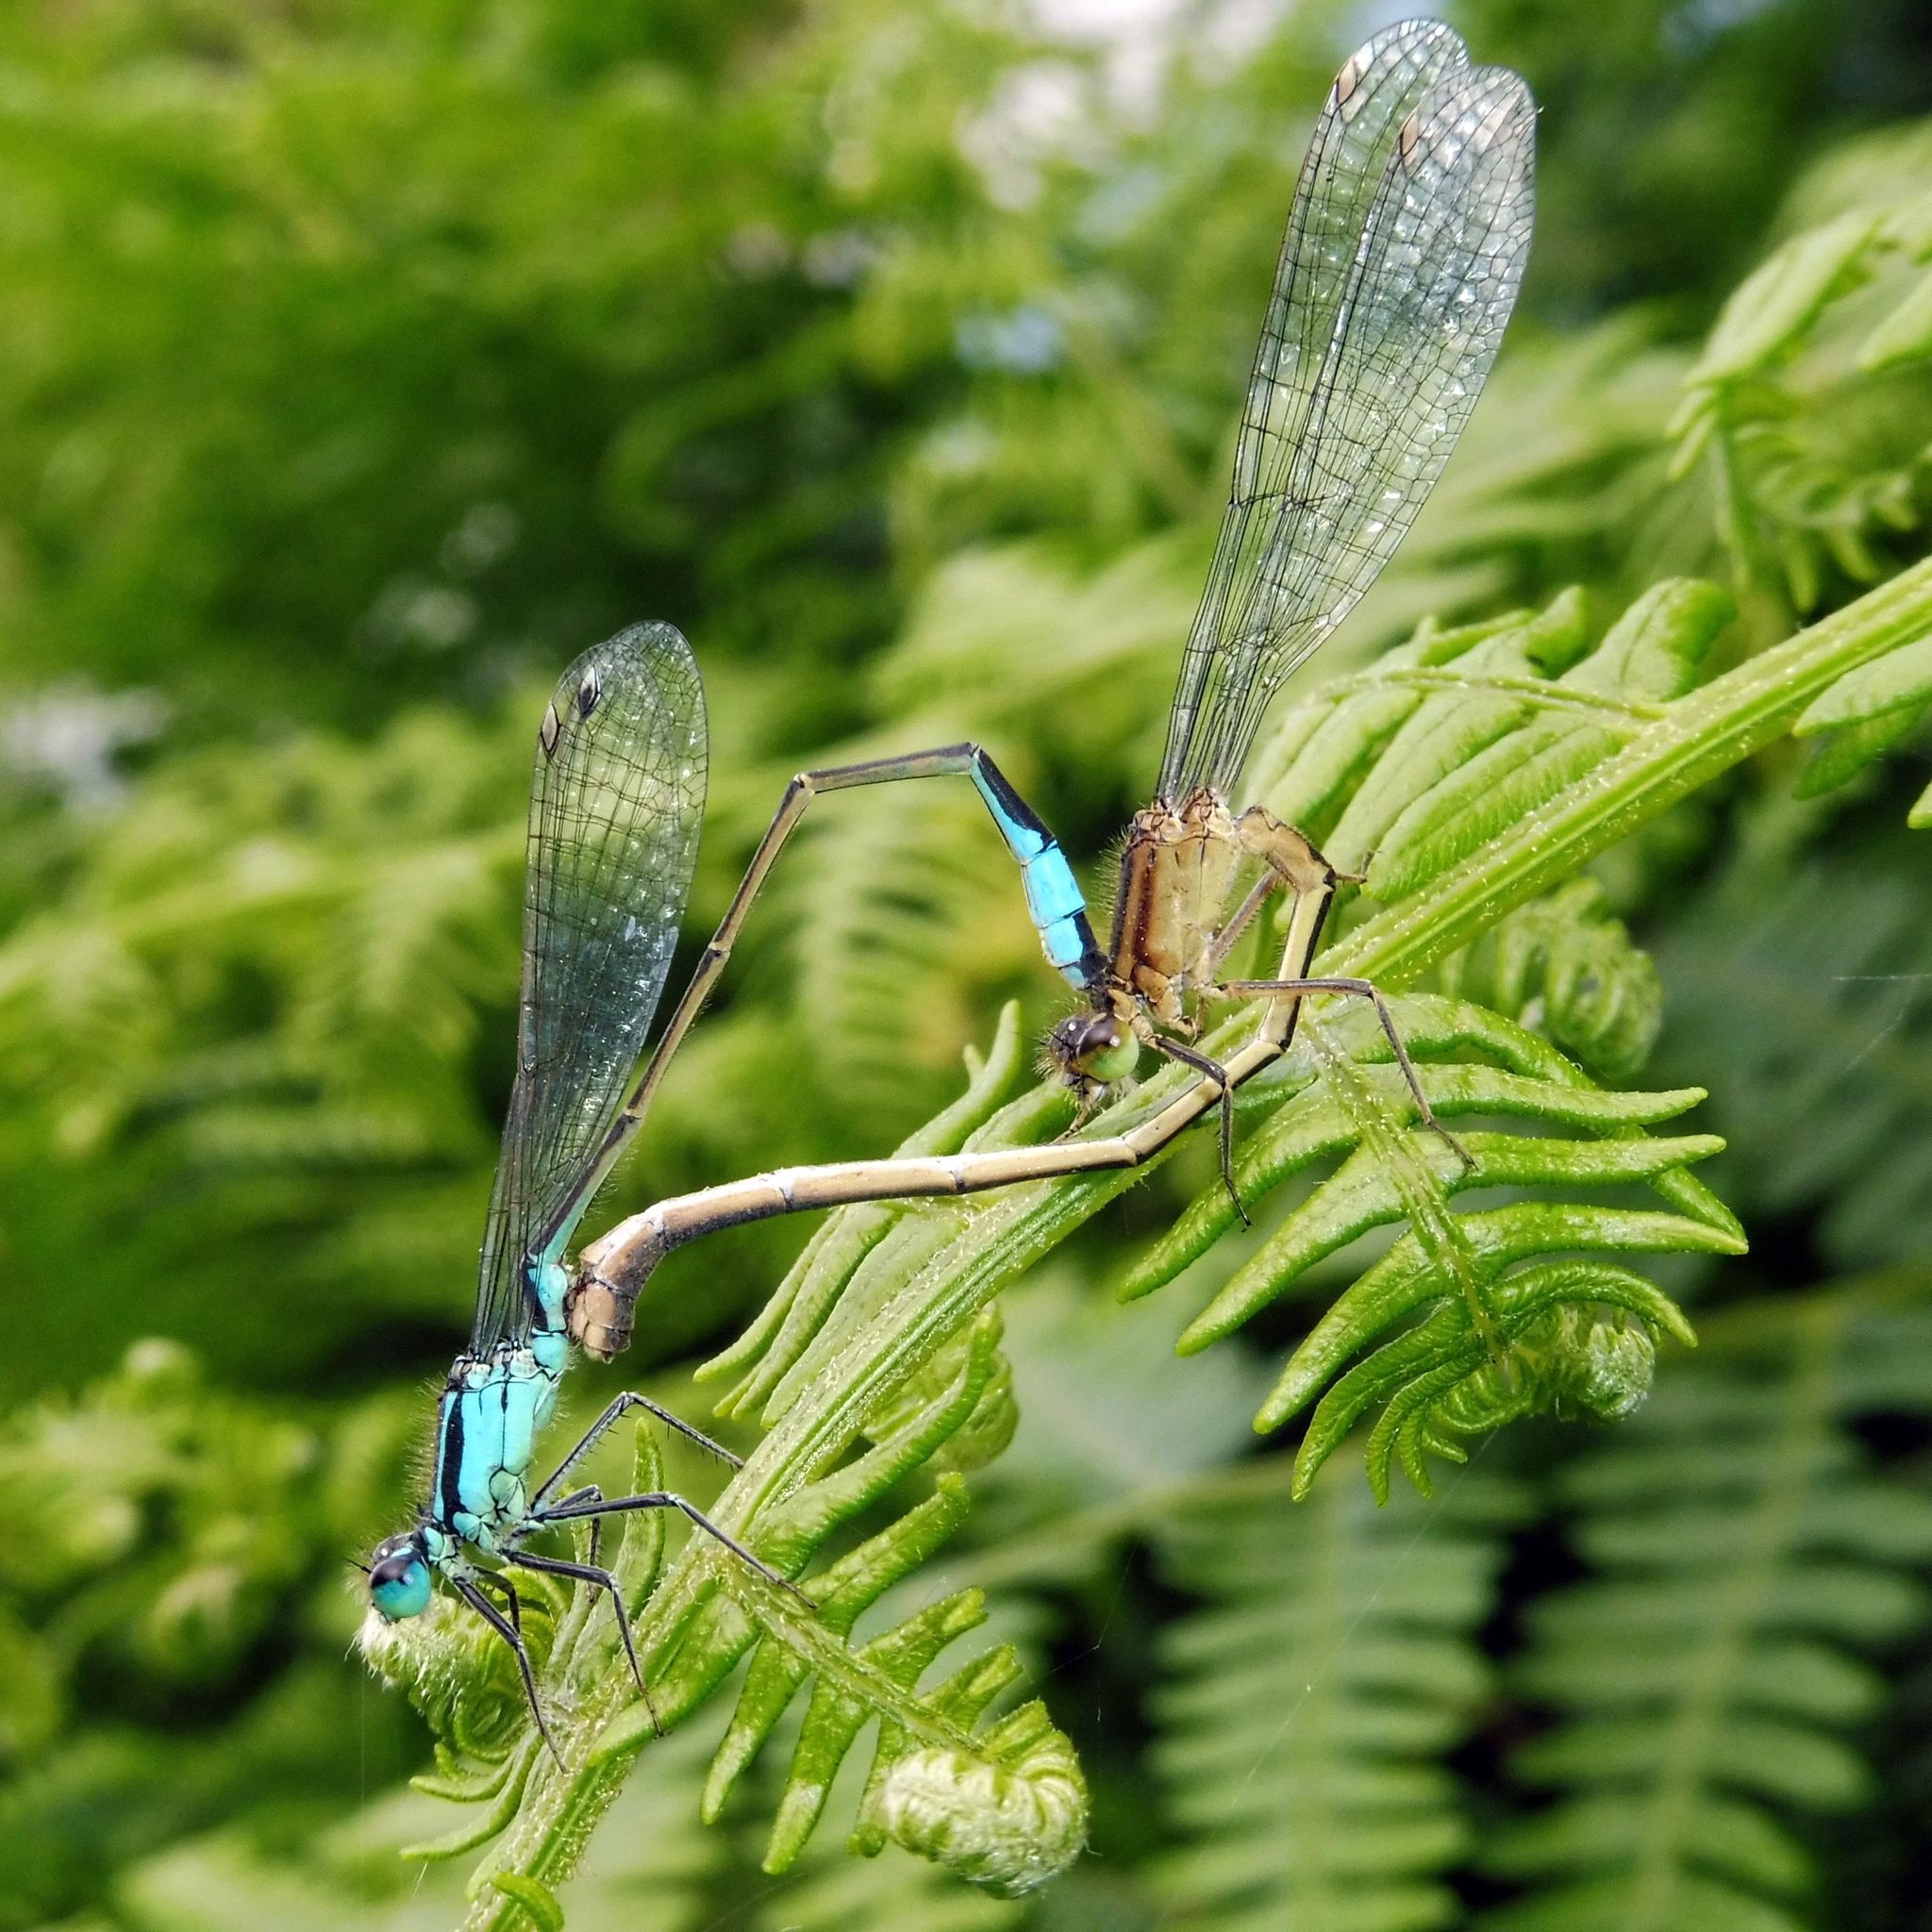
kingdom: Animalia
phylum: Arthropoda
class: Insecta
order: Odonata
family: Coenagrionidae
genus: Ischnura
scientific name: Ischnura elegans
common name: Blue-tailed damselfly
